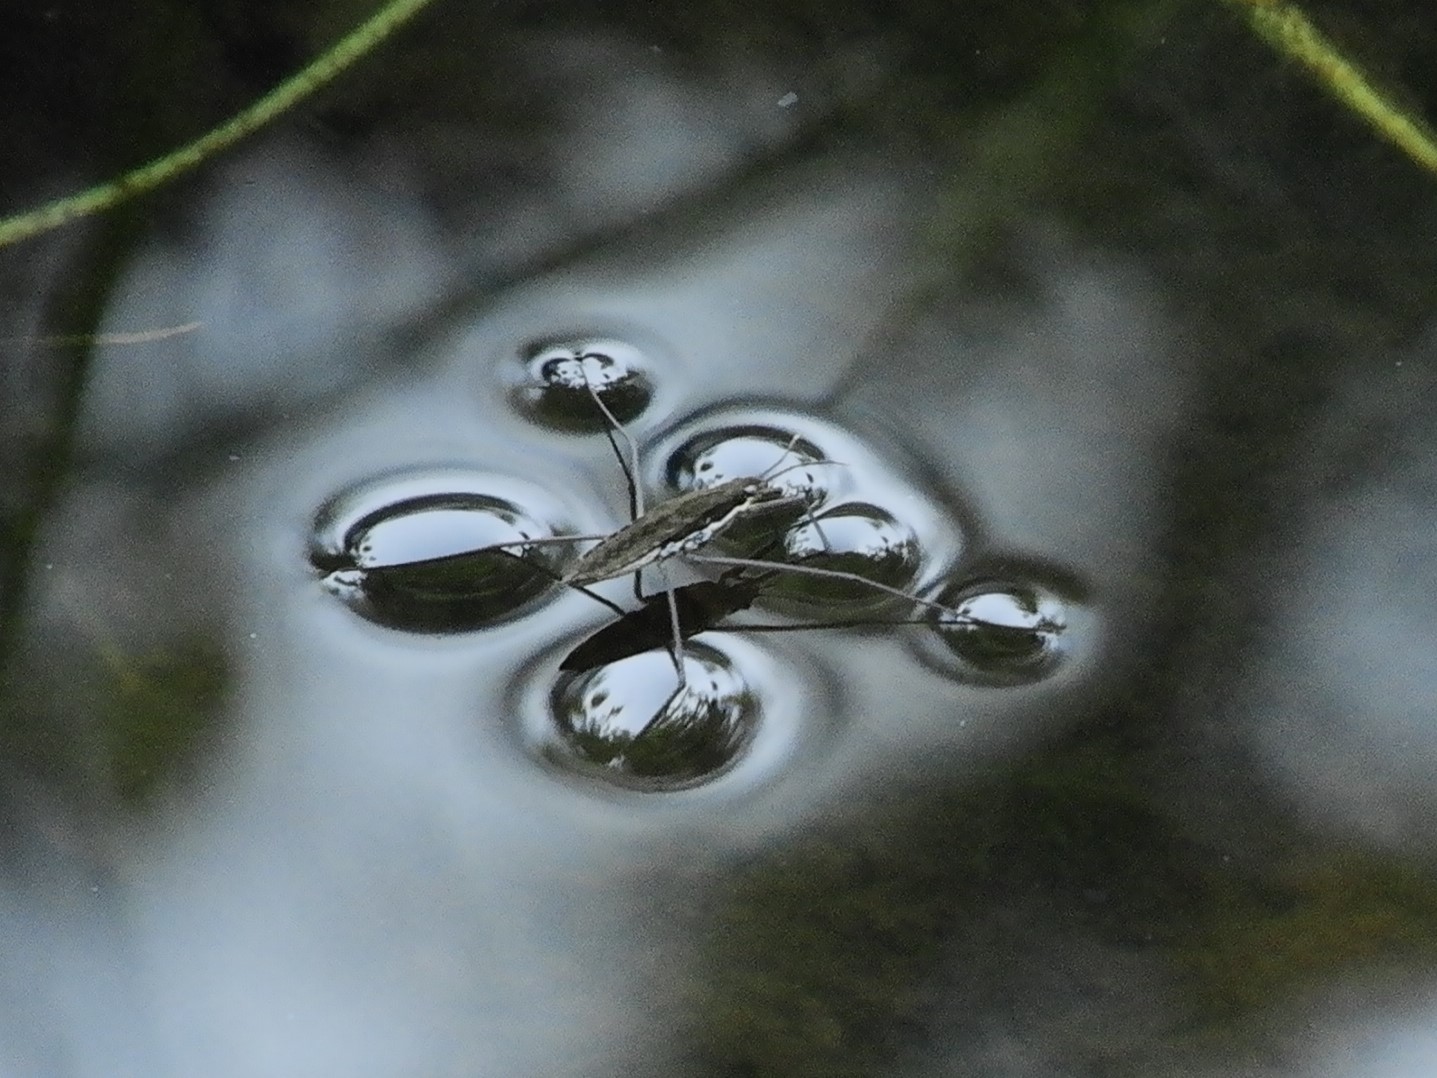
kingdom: Animalia
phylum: Arthropoda
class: Insecta
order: Hemiptera
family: Gerridae
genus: Aquarius
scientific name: Aquarius remigis
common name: Common water strider
